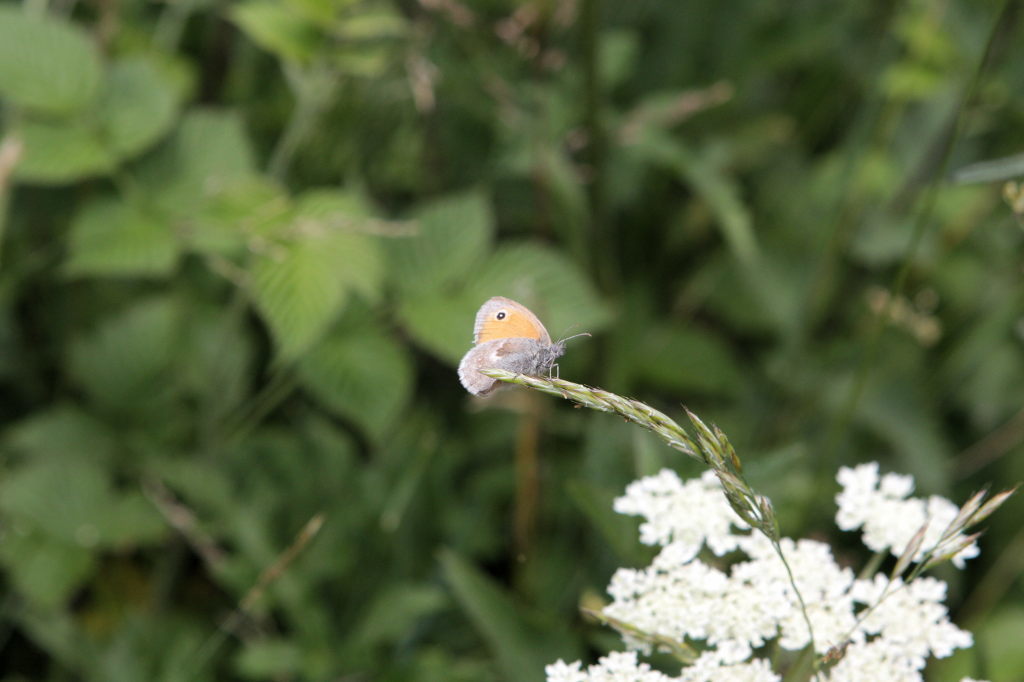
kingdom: Animalia
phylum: Arthropoda
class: Insecta
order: Lepidoptera
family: Nymphalidae
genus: Coenonympha
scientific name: Coenonympha pamphilus
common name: Small heath
